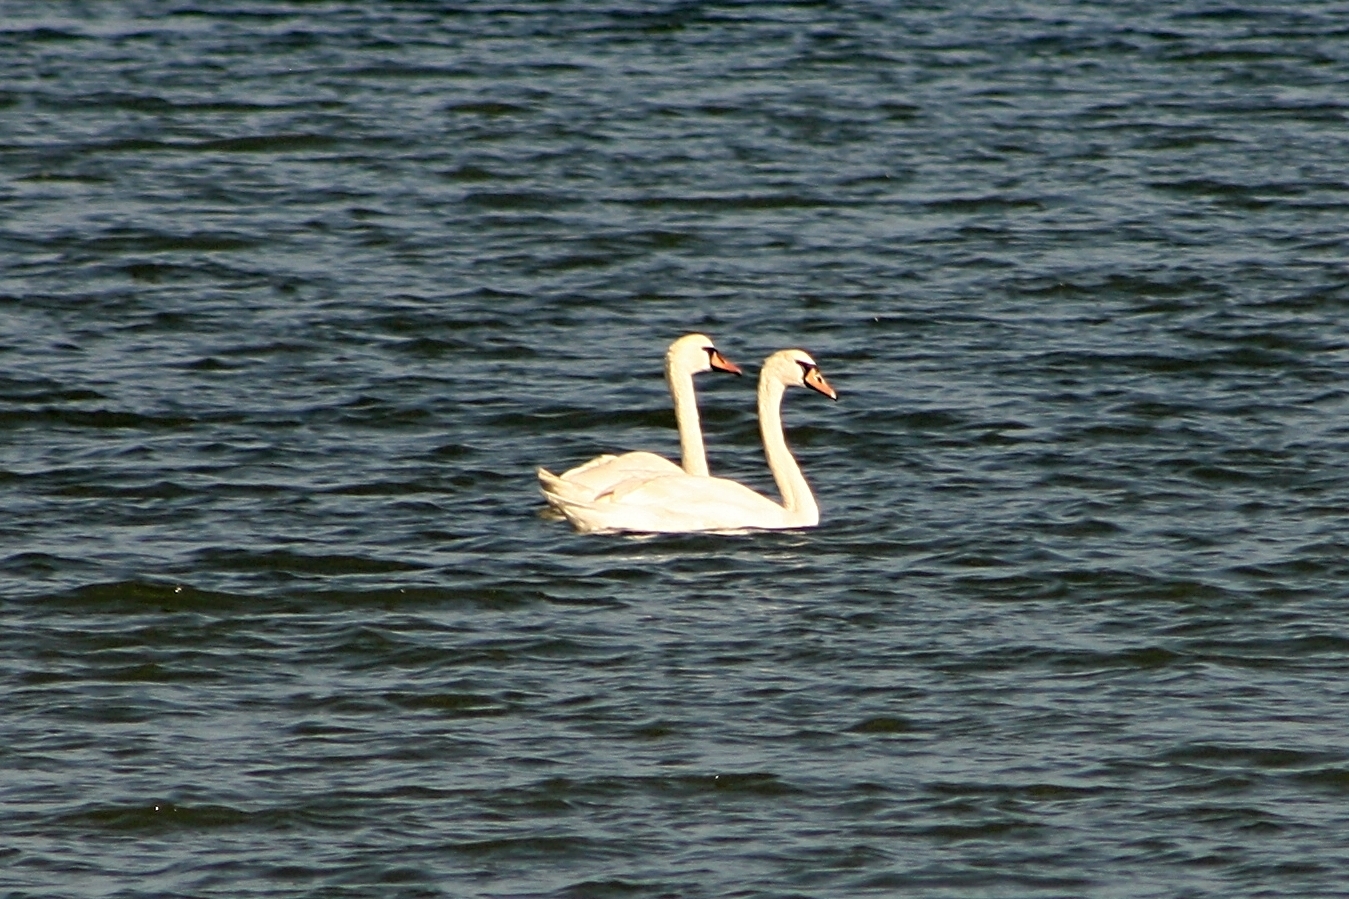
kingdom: Animalia
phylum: Chordata
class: Aves
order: Anseriformes
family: Anatidae
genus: Cygnus
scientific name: Cygnus olor
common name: Mute swan
